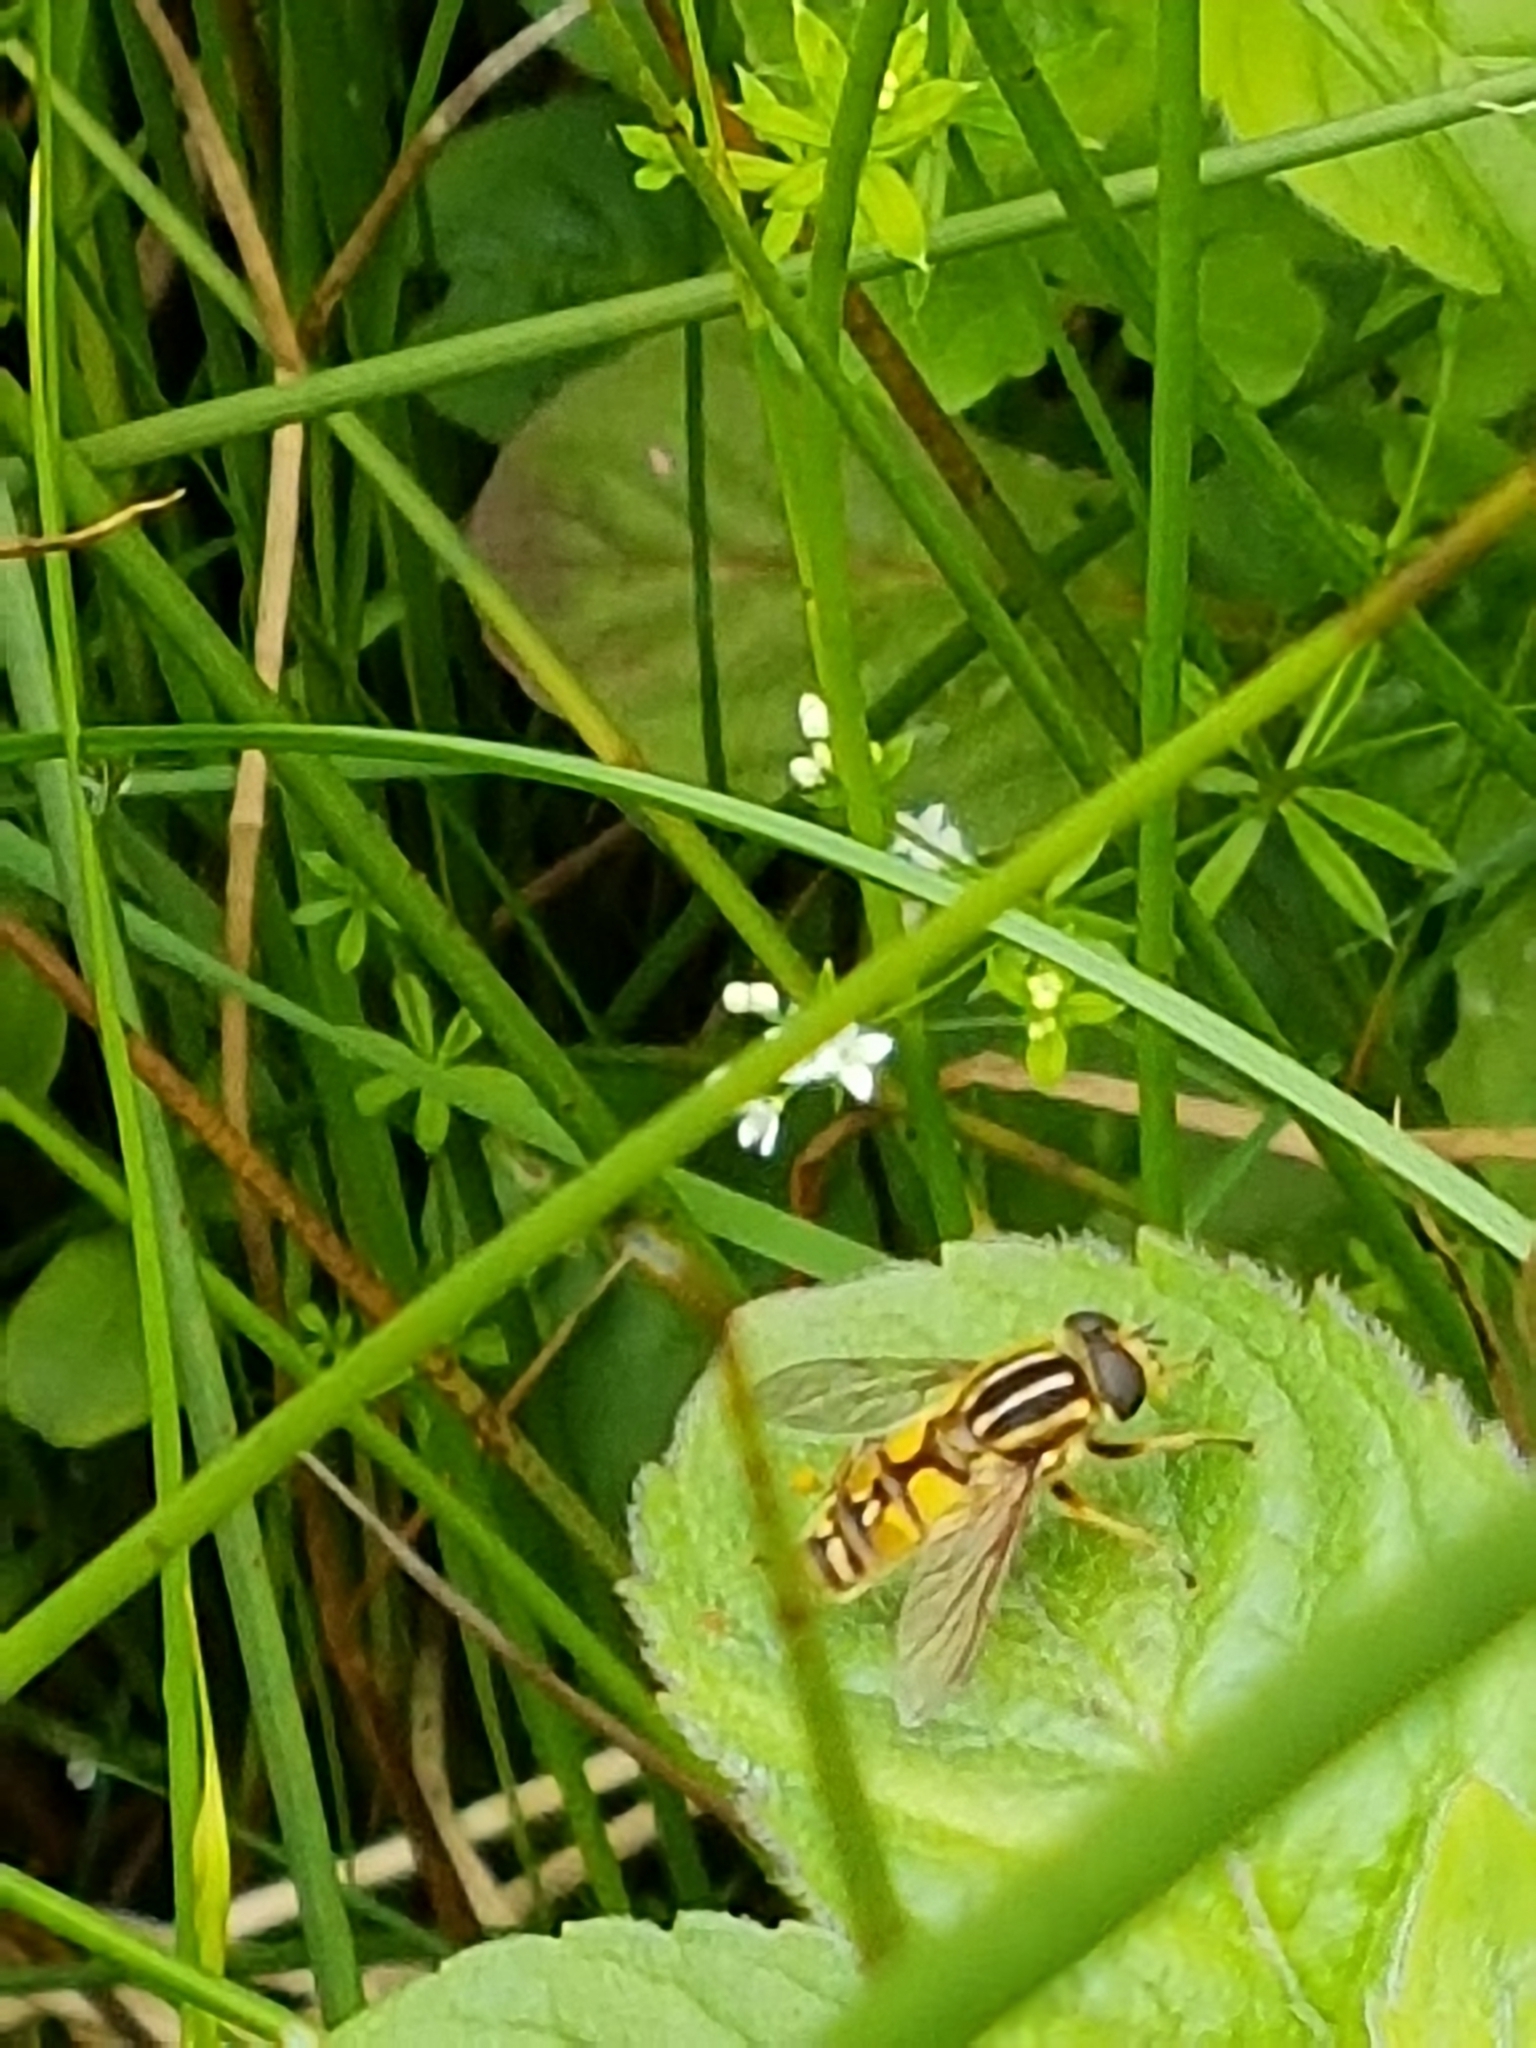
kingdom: Animalia
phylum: Arthropoda
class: Insecta
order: Diptera
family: Syrphidae
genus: Helophilus
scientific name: Helophilus pendulus
